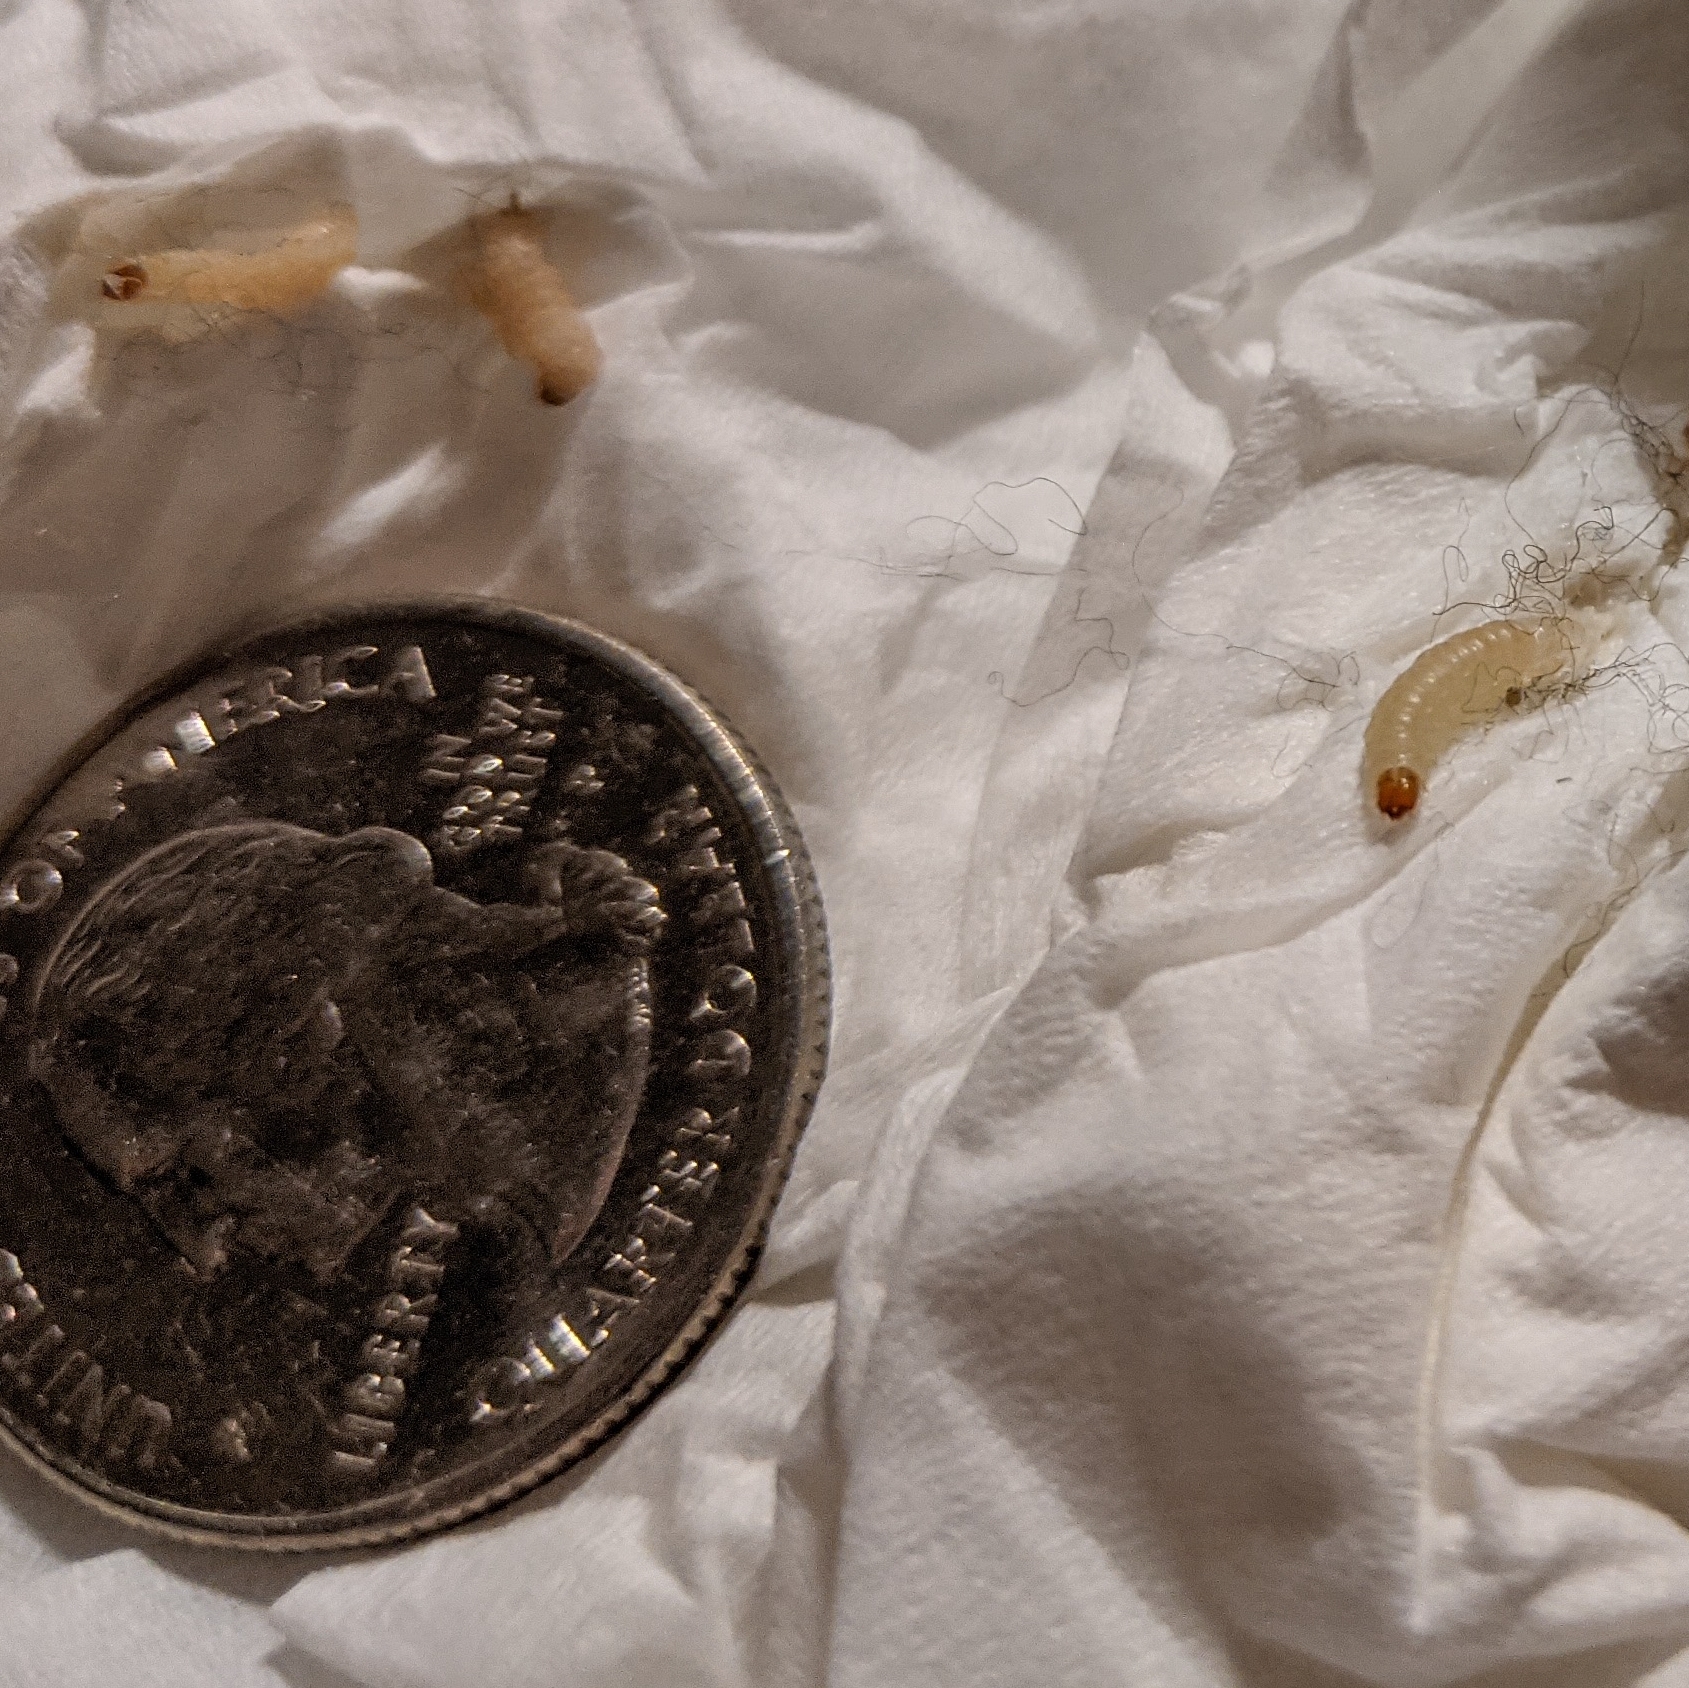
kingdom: Animalia
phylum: Arthropoda
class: Insecta
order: Lepidoptera
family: Pyralidae
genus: Plodia
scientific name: Plodia interpunctella
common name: Indian meal moth
